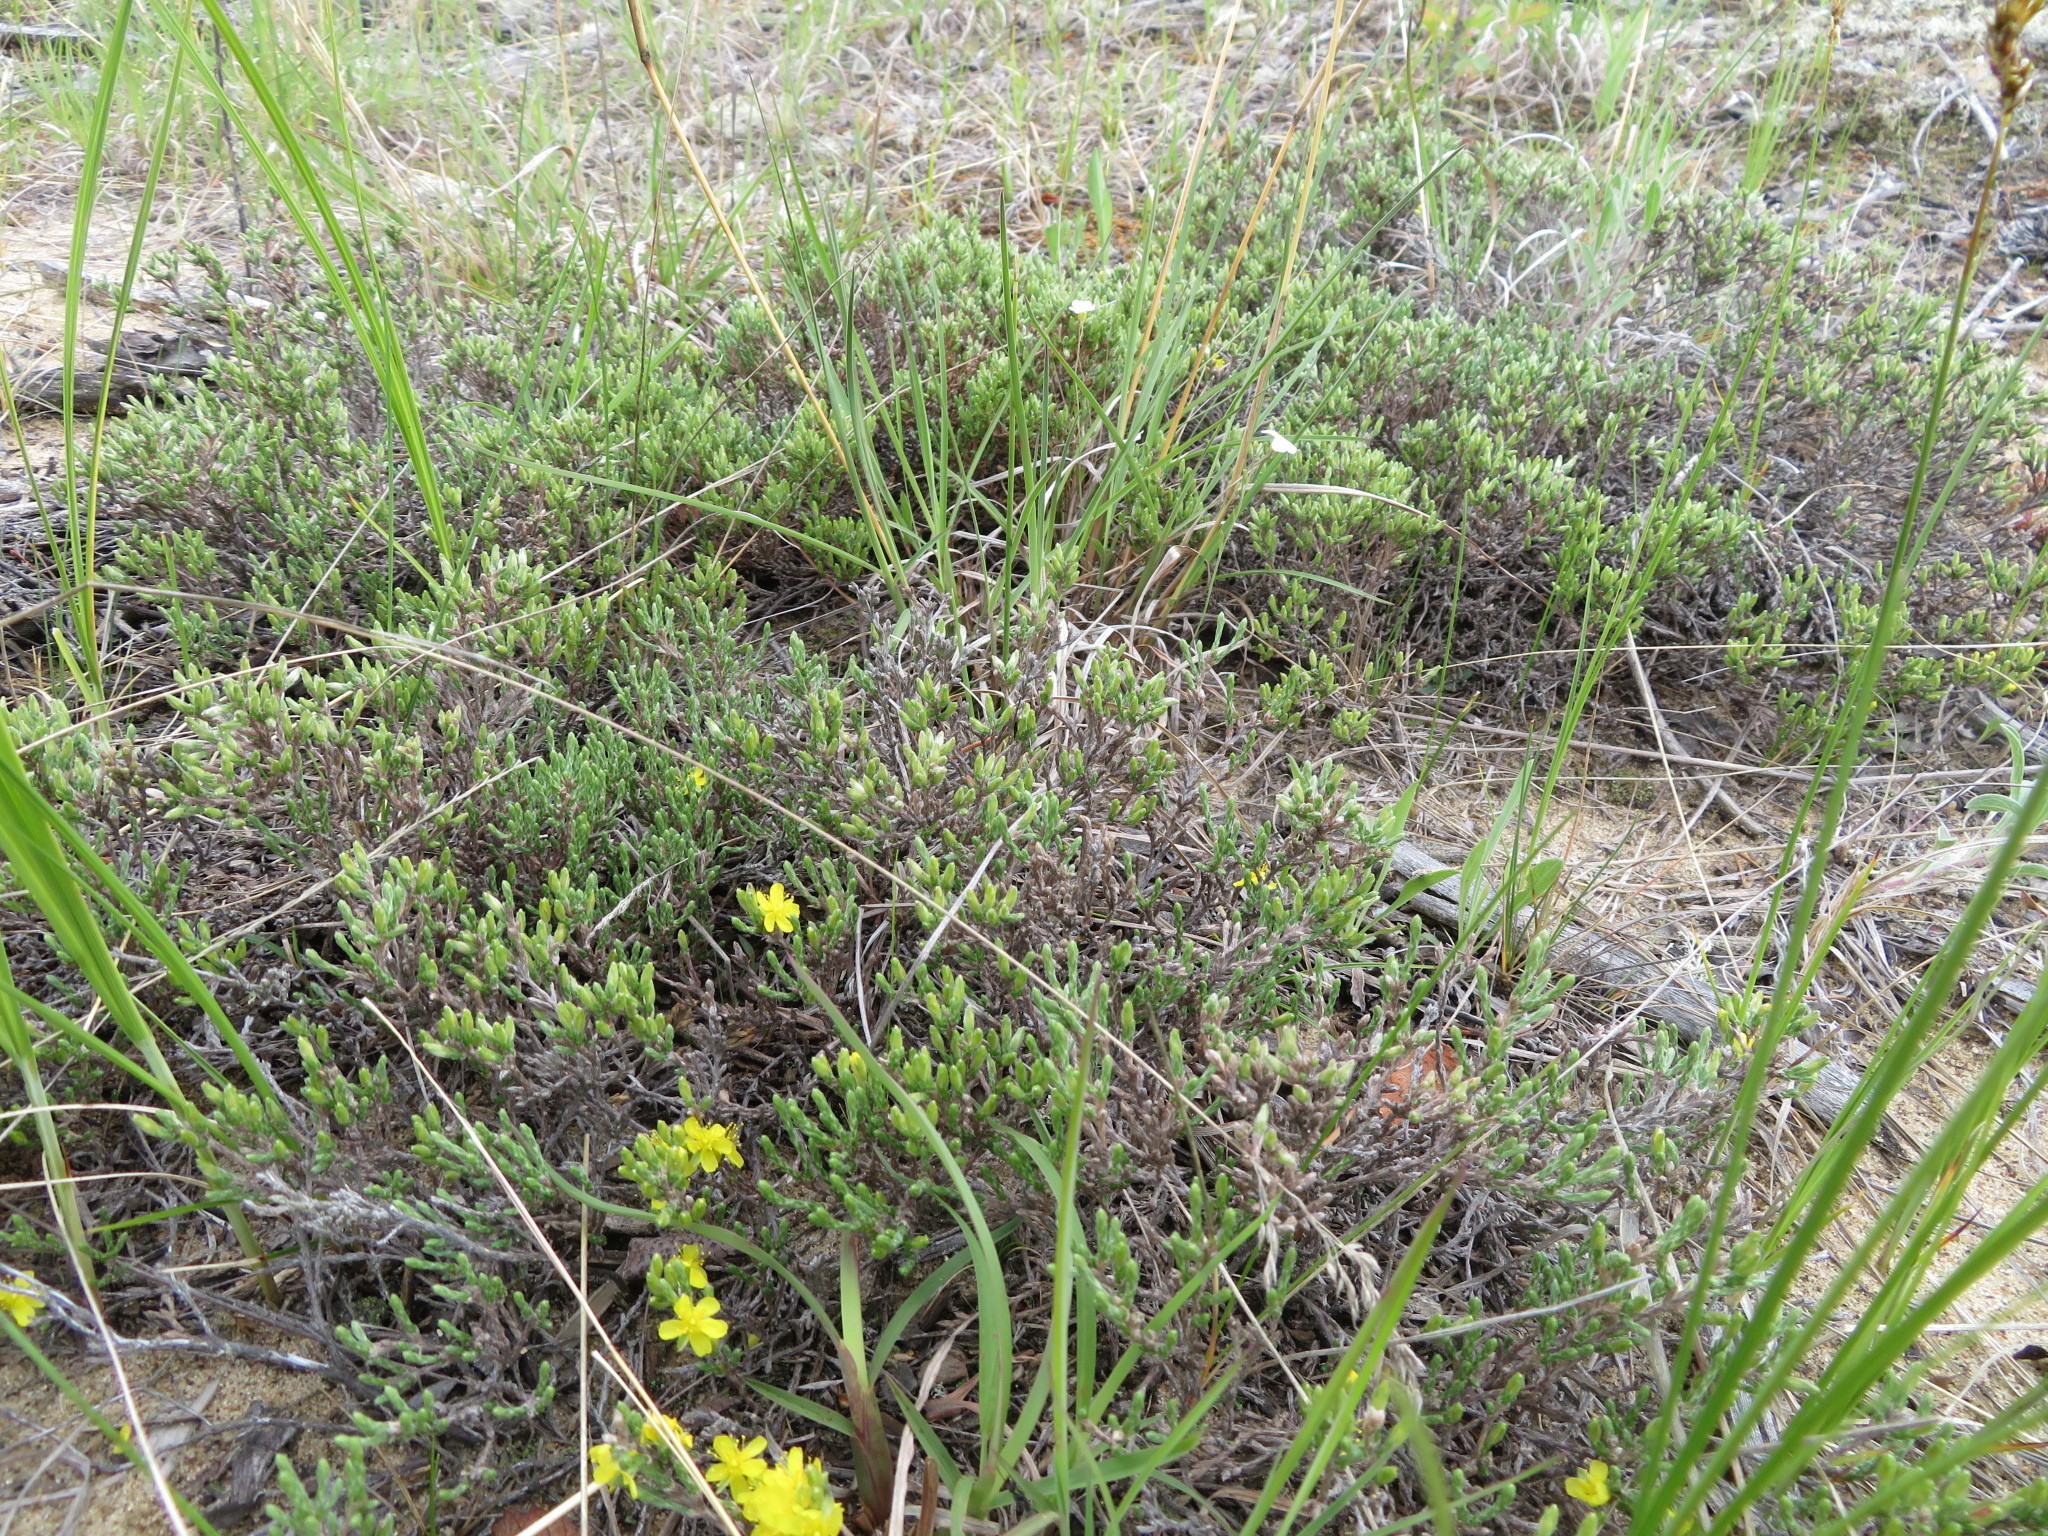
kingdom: Plantae
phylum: Tracheophyta
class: Magnoliopsida
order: Malvales
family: Cistaceae
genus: Hudsonia
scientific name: Hudsonia tomentosa
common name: Beach-heath
